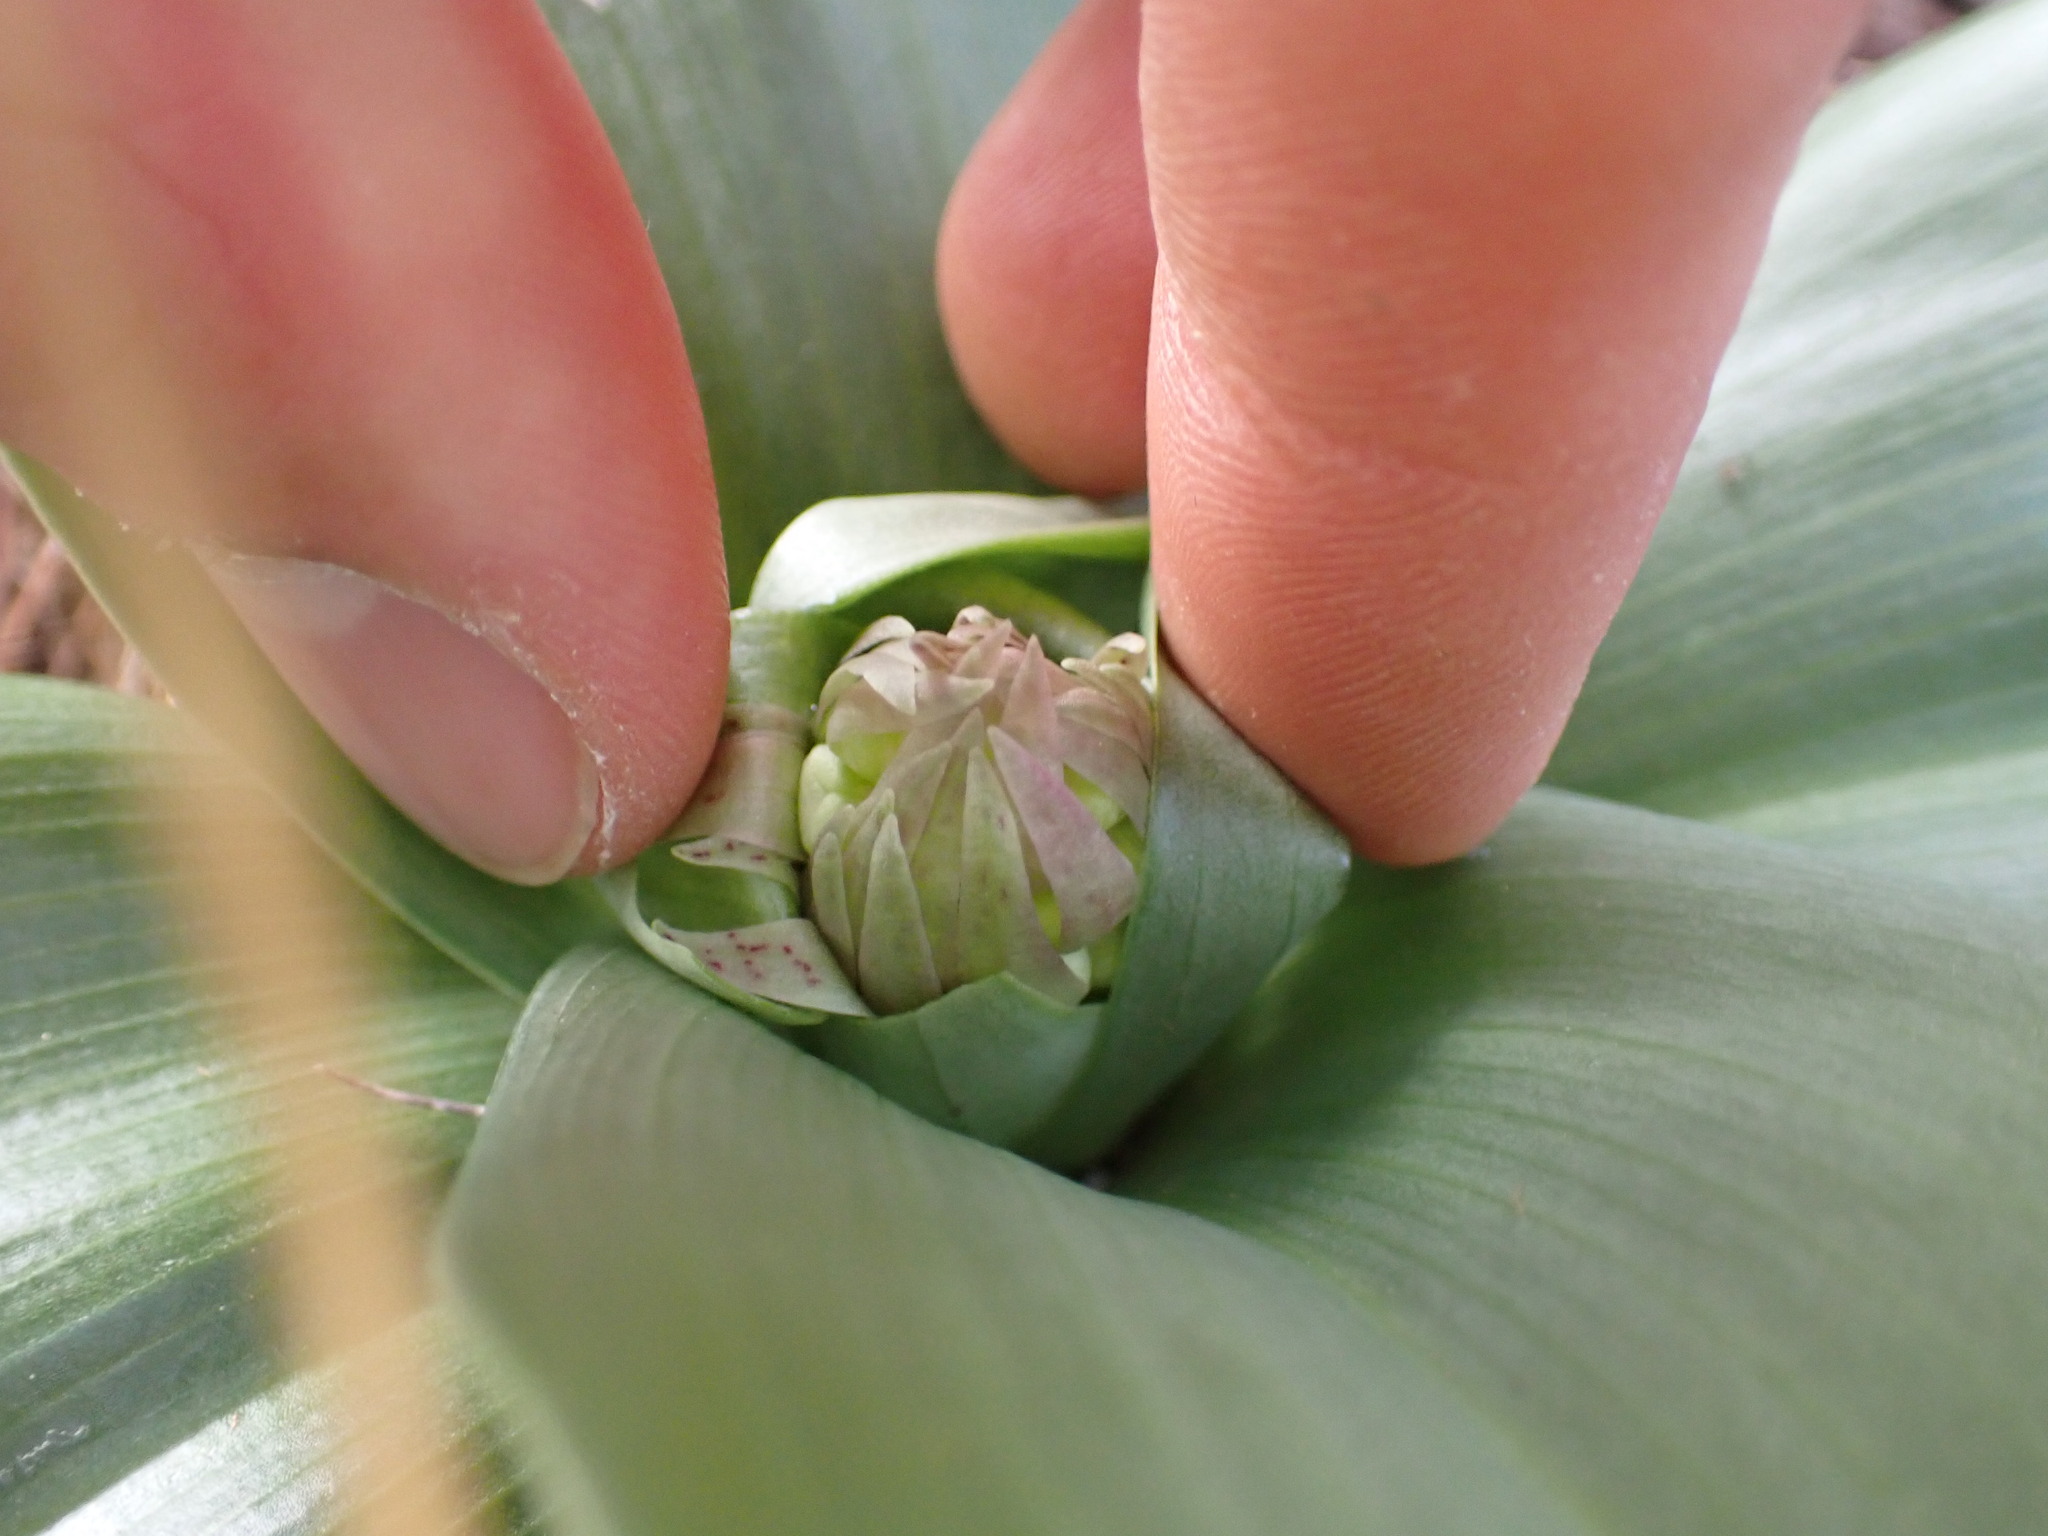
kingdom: Plantae
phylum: Tracheophyta
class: Liliopsida
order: Asparagales
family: Orchidaceae
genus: Himantoglossum
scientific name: Himantoglossum robertianum
